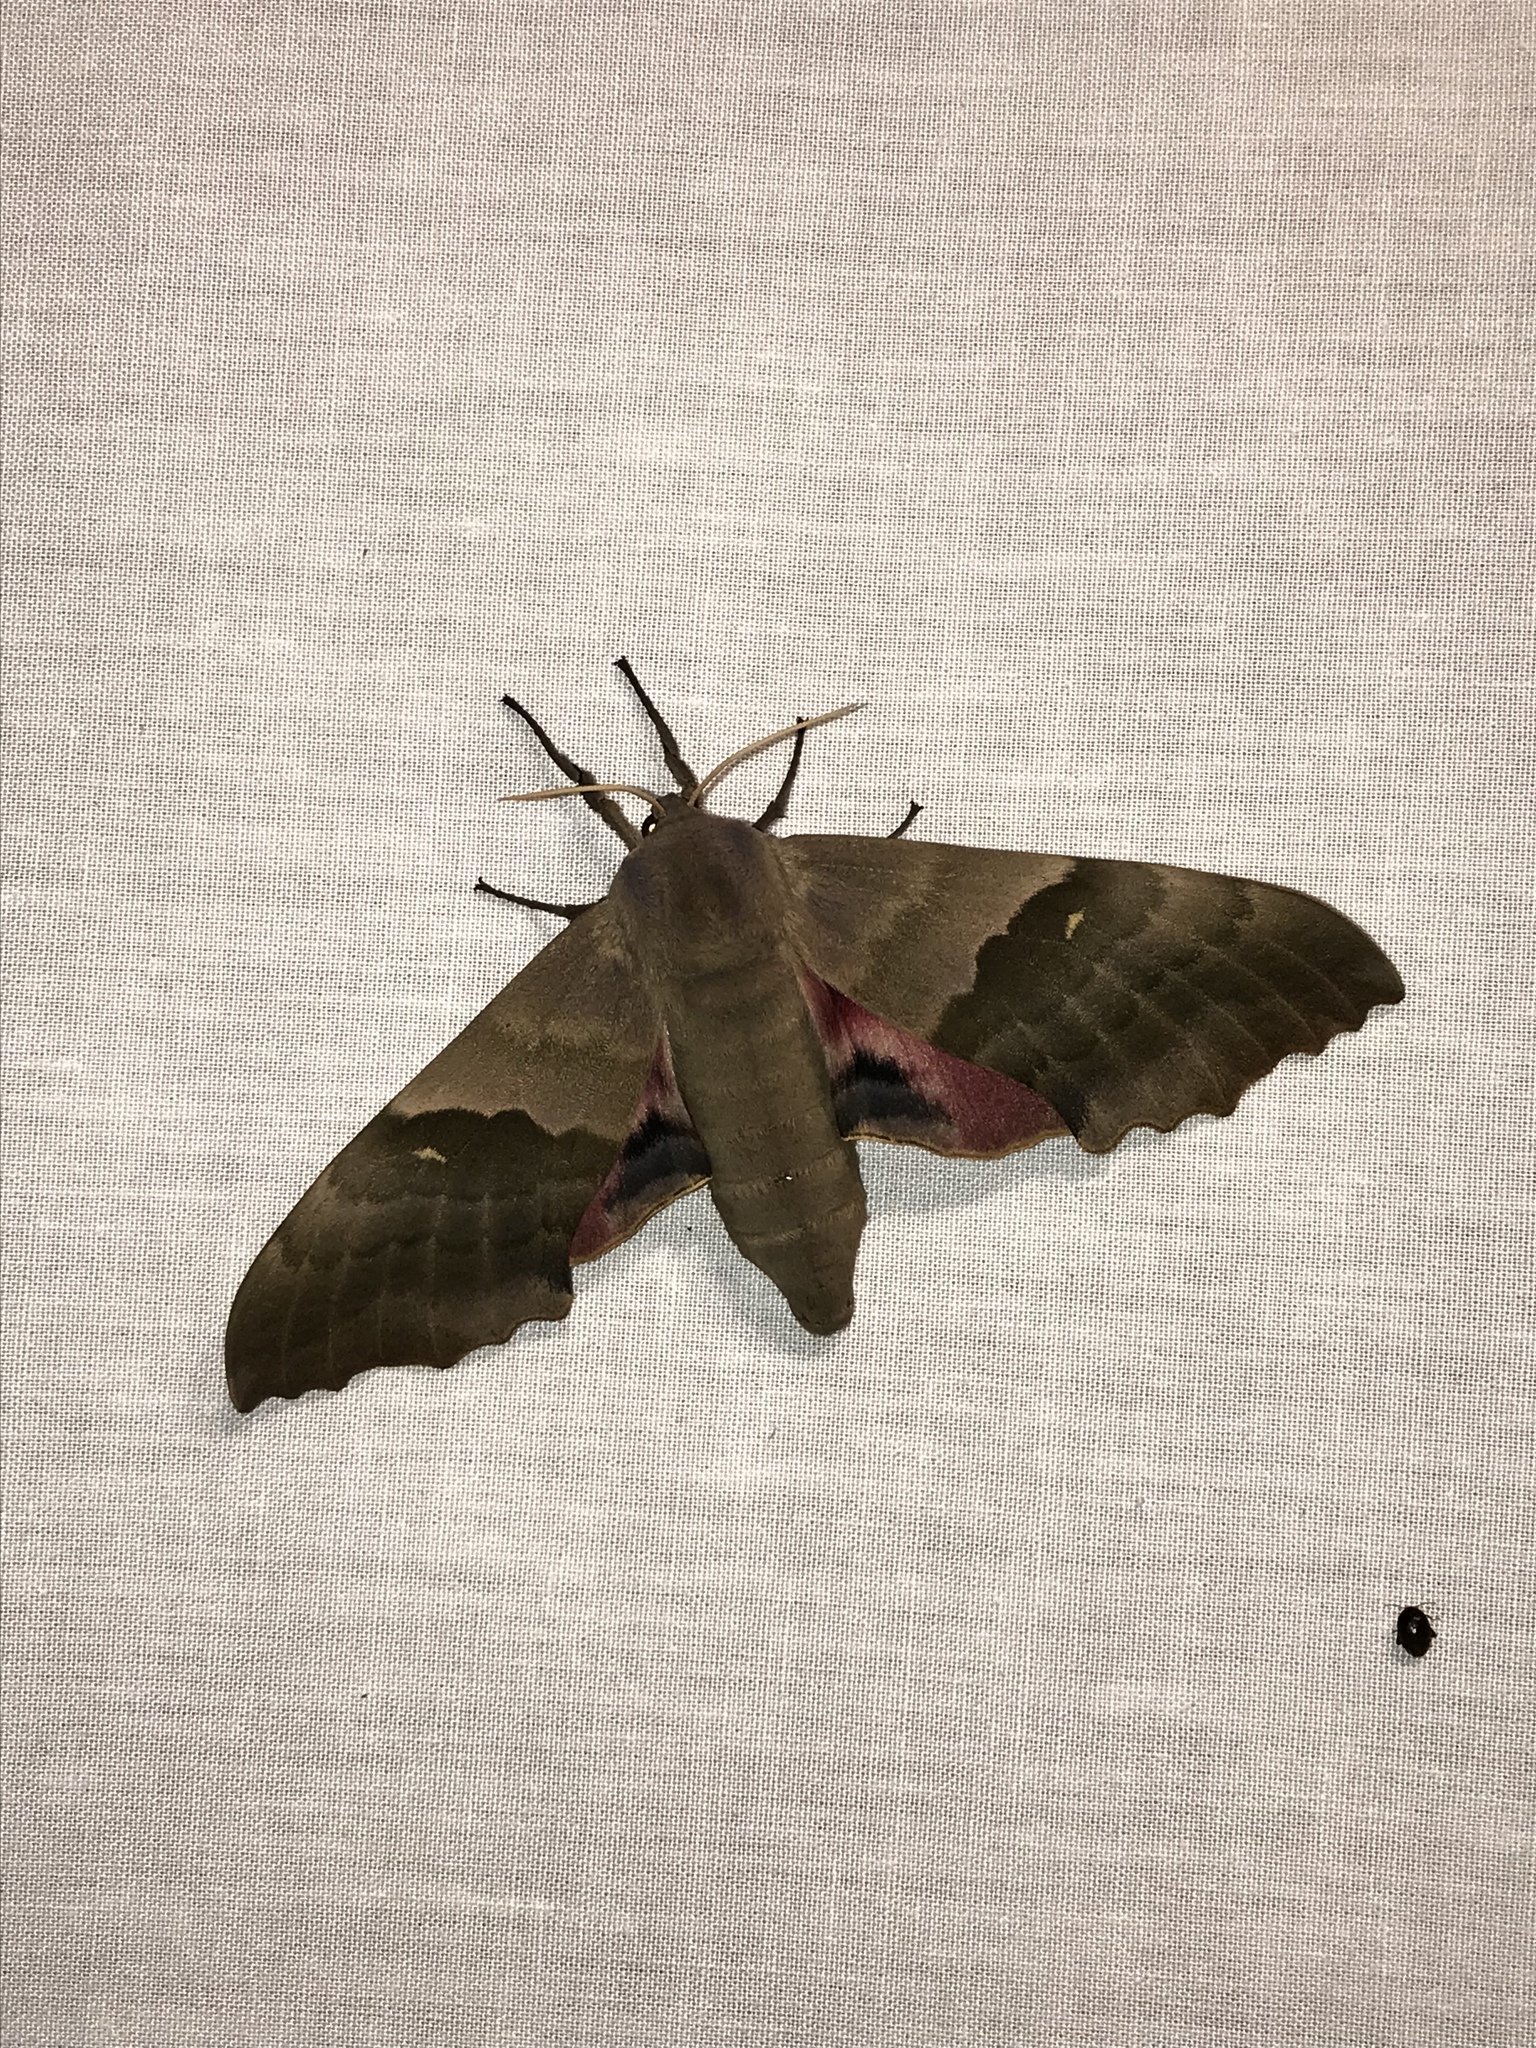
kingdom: Animalia
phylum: Arthropoda
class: Insecta
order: Lepidoptera
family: Sphingidae
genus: Pachysphinx
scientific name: Pachysphinx modesta
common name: Big poplar sphinx
